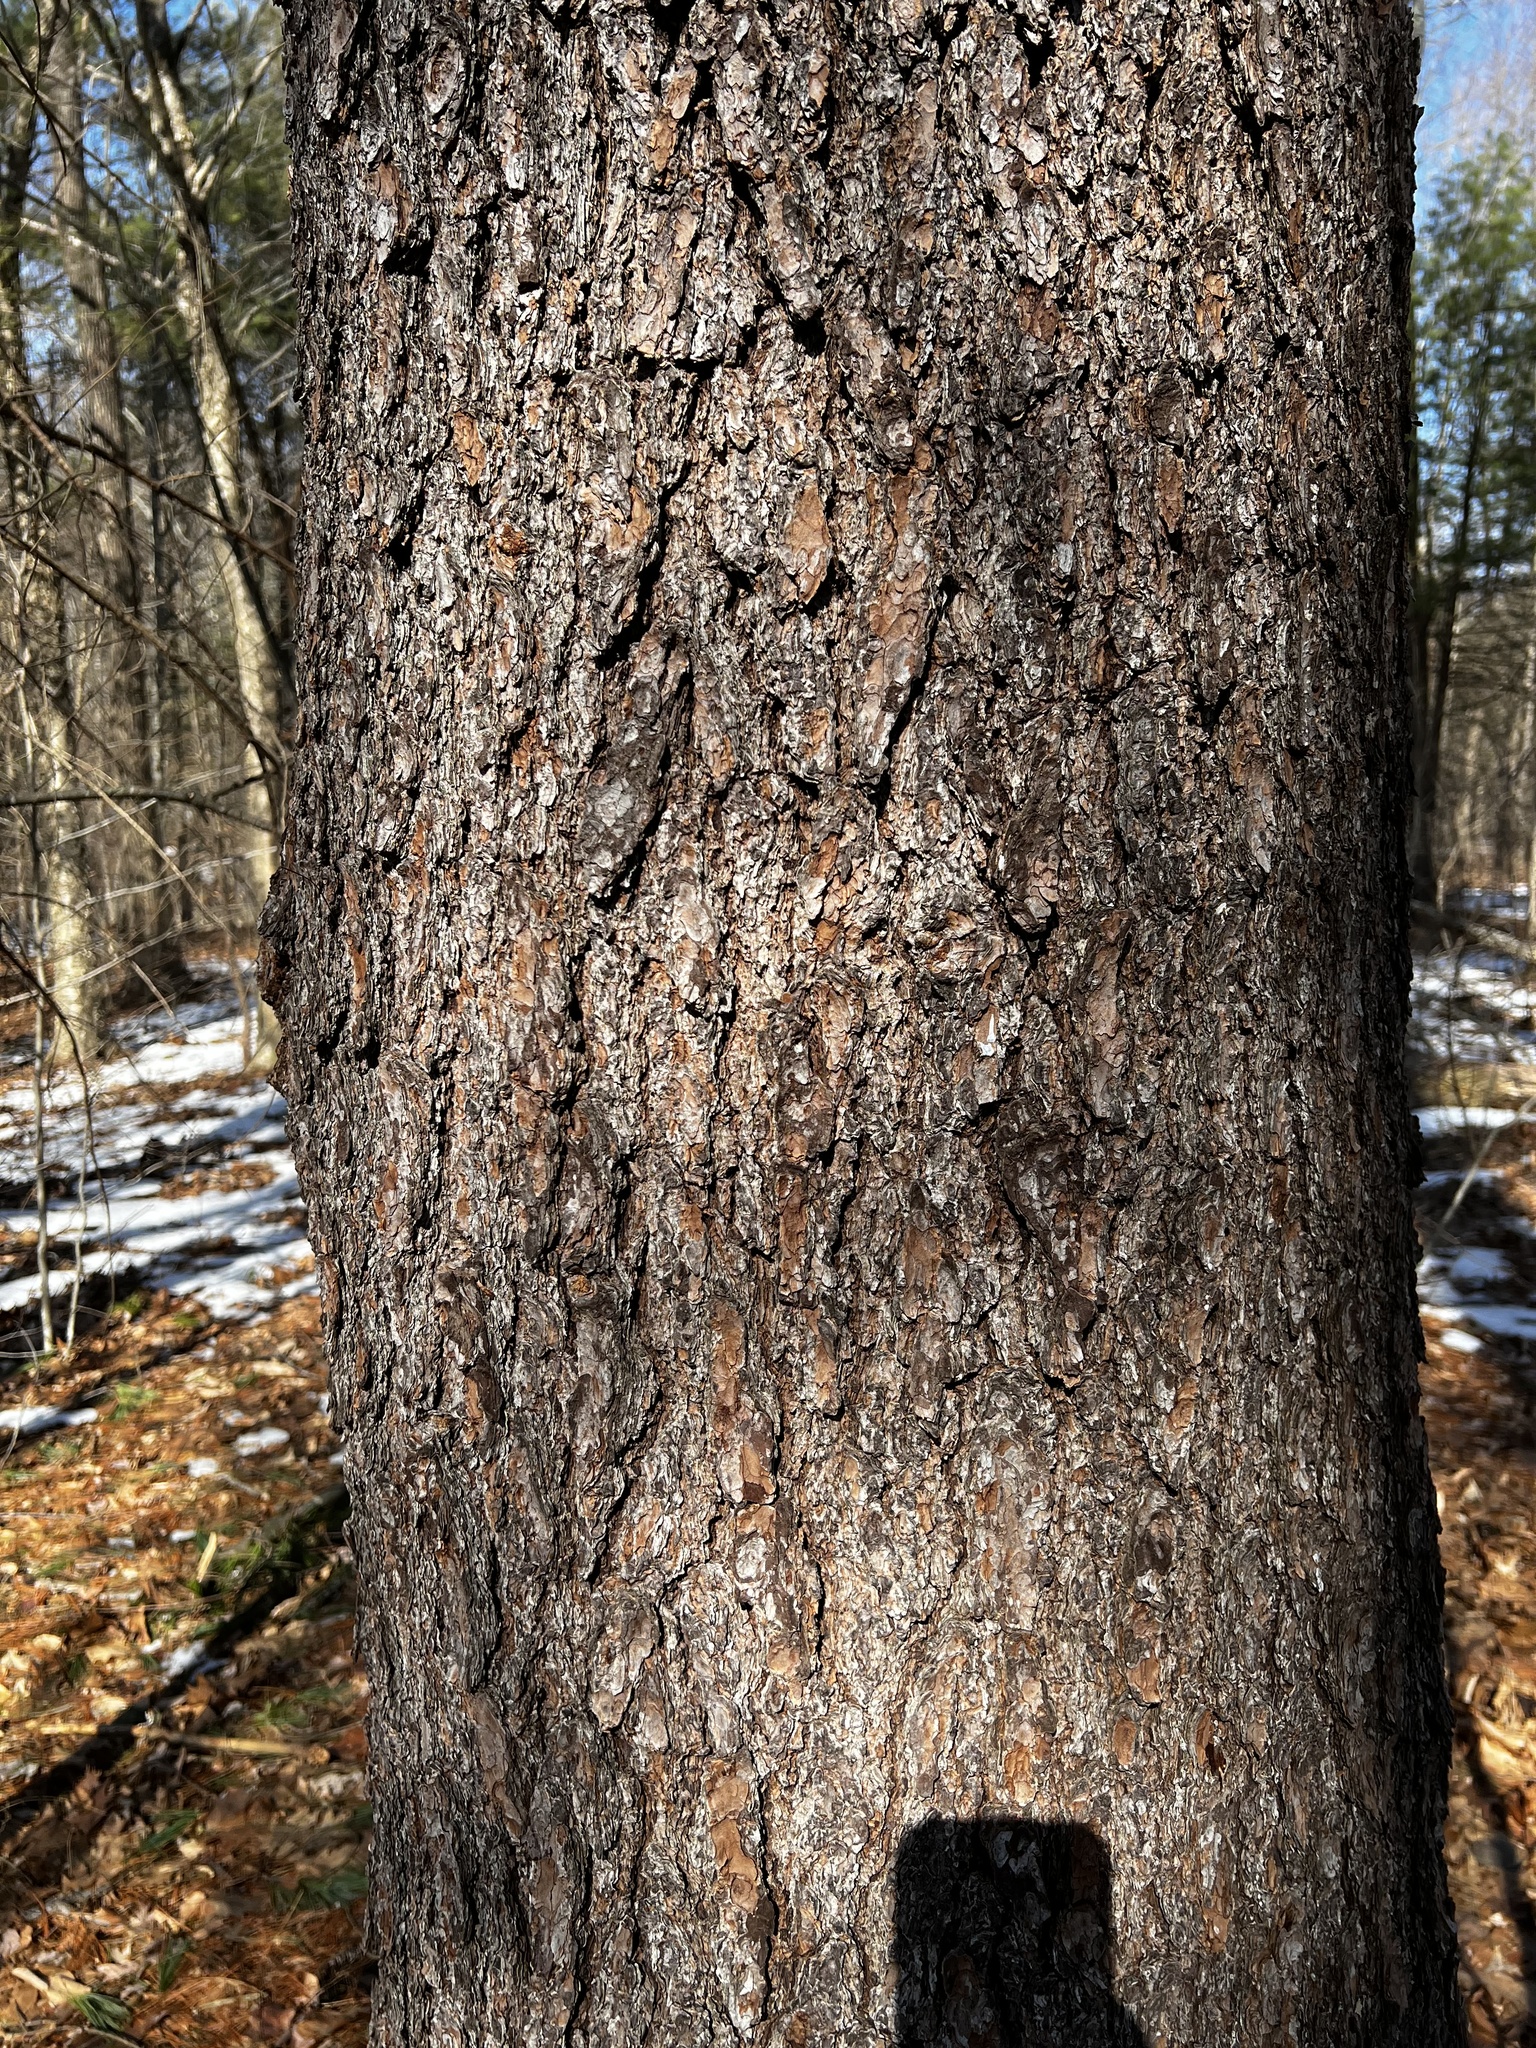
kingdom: Plantae
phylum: Tracheophyta
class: Pinopsida
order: Pinales
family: Pinaceae
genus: Pinus
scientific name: Pinus strobus
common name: Weymouth pine
